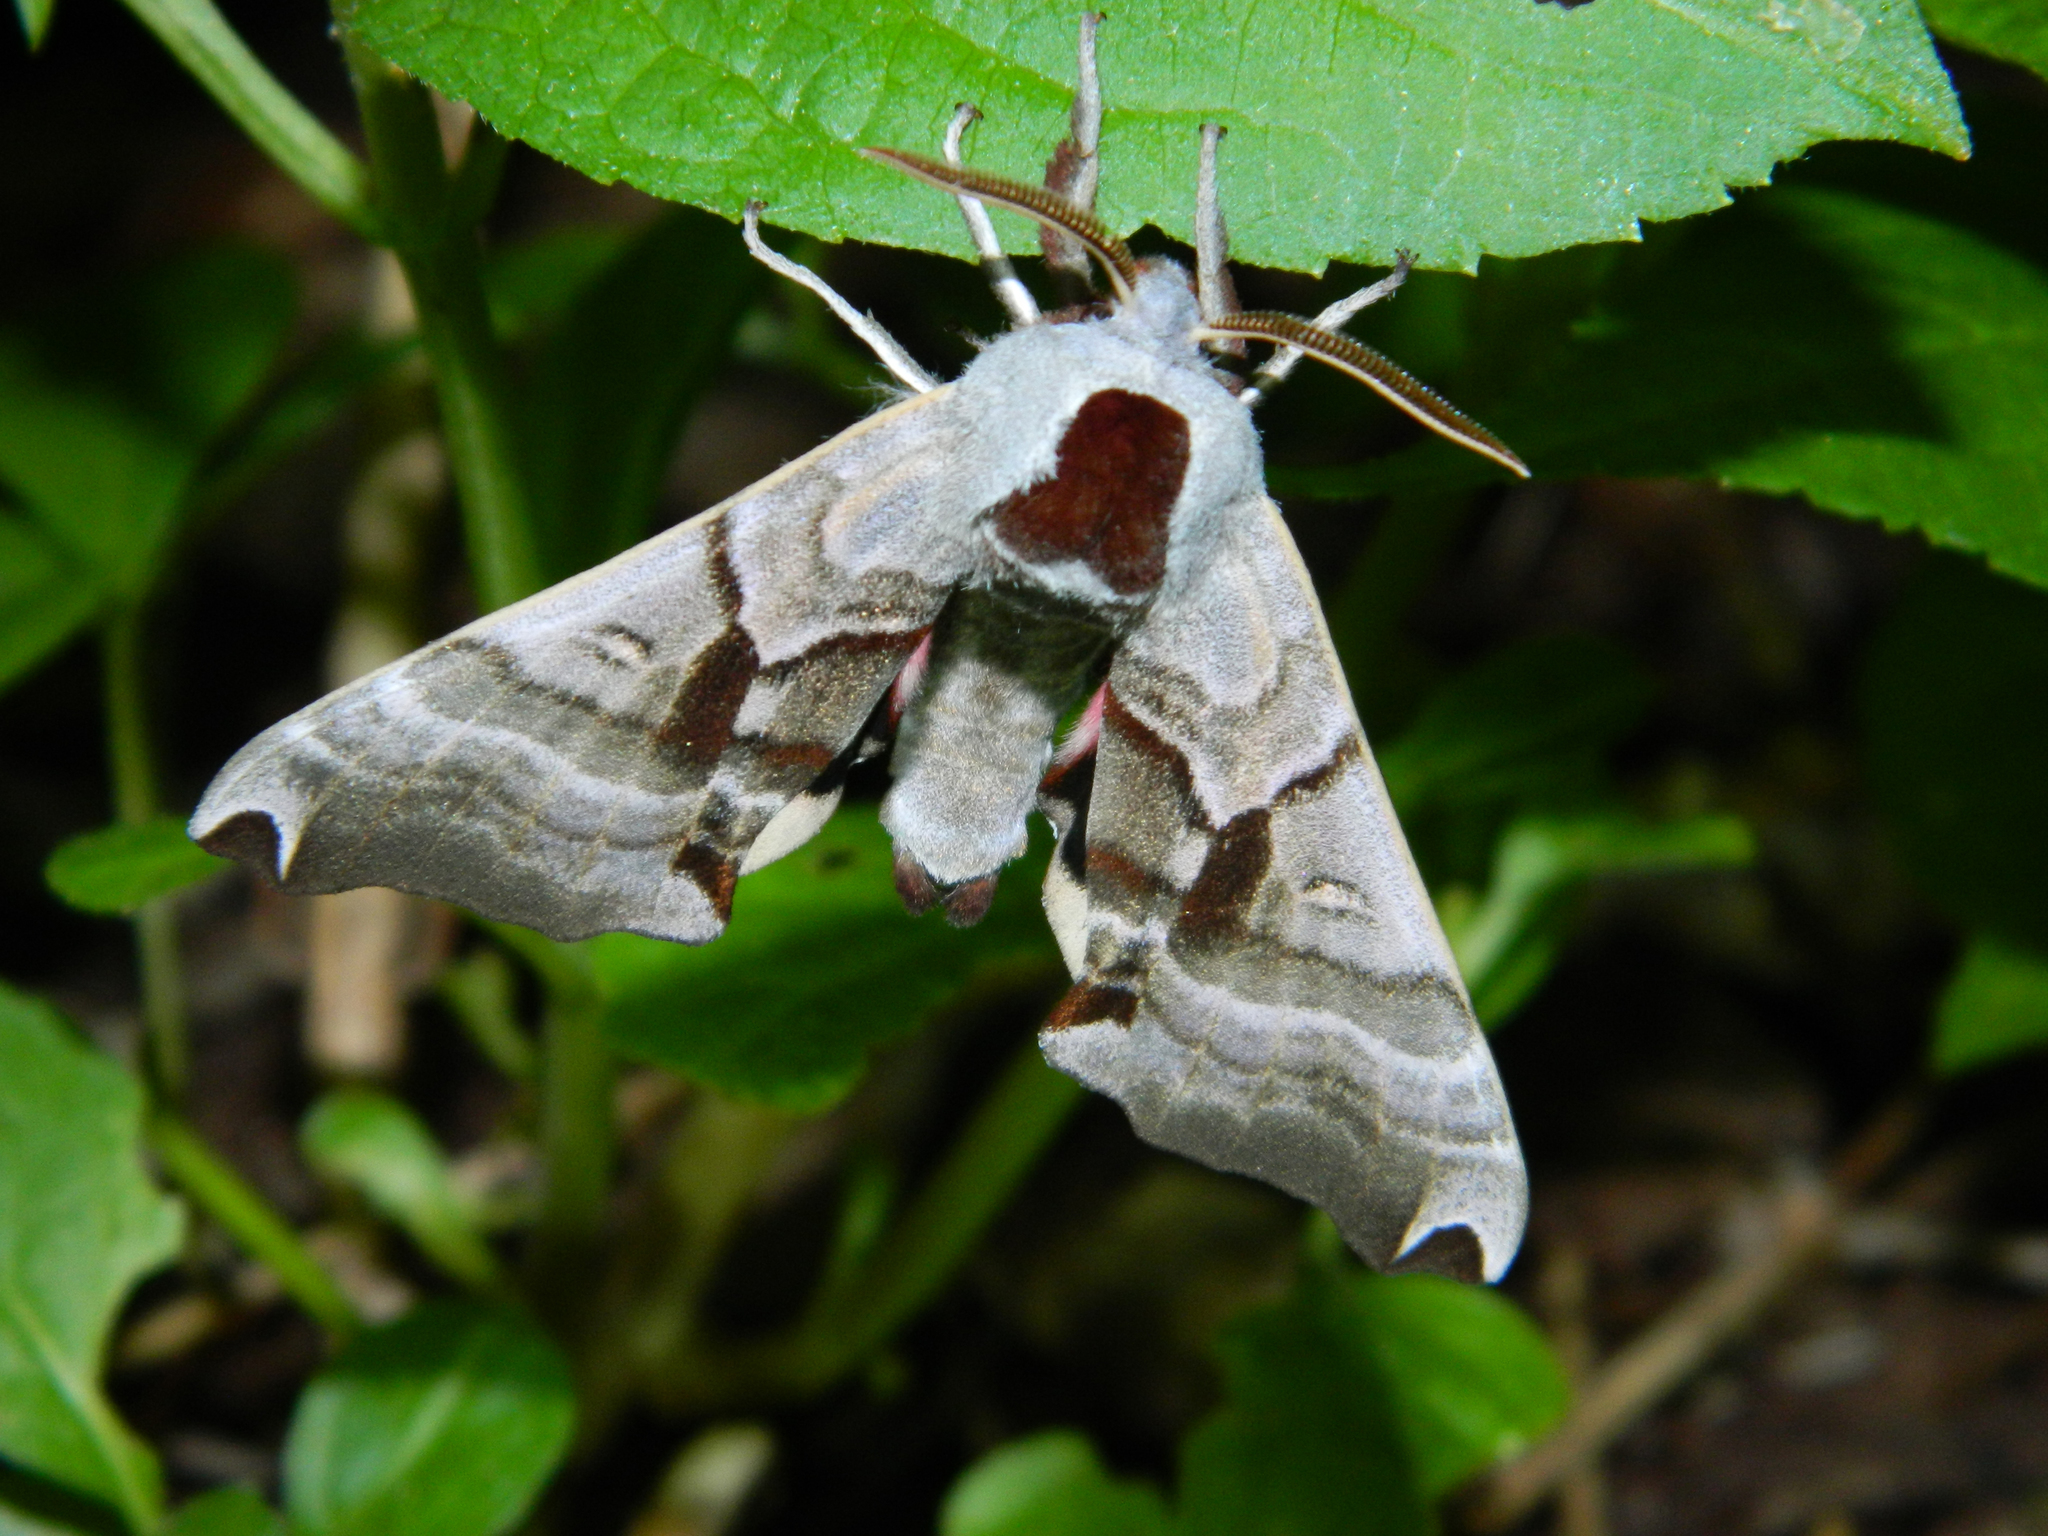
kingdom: Animalia
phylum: Arthropoda
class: Insecta
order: Lepidoptera
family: Sphingidae
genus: Smerinthus
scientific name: Smerinthus jamaicensis
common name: Twin spotted sphinx
